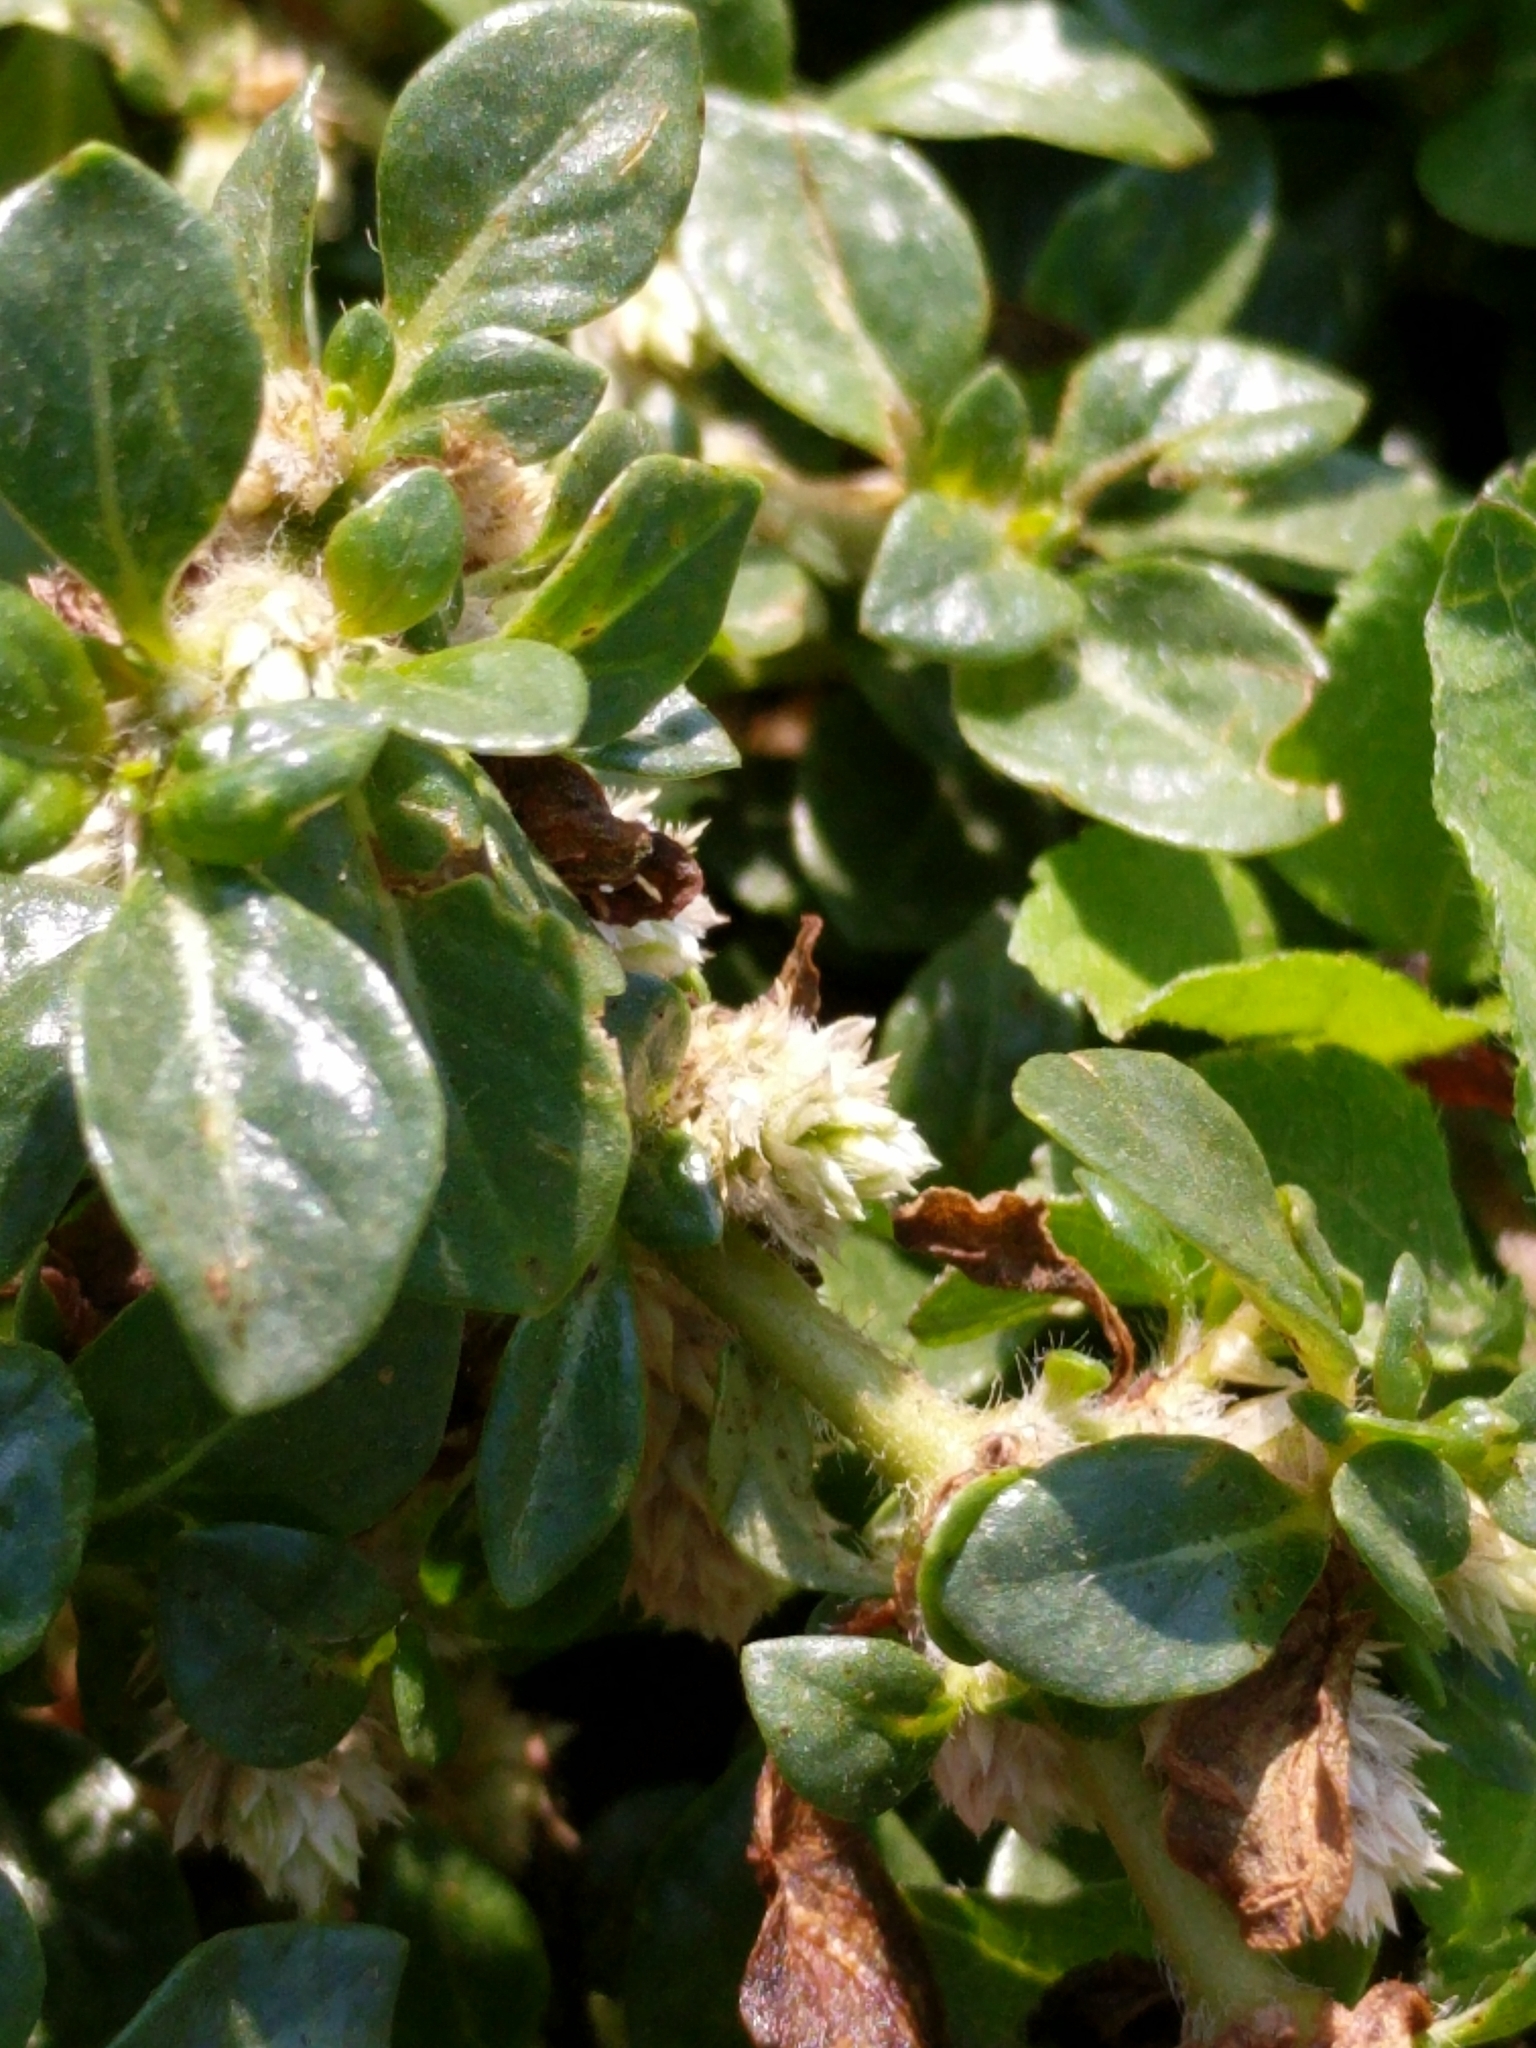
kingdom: Plantae
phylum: Tracheophyta
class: Magnoliopsida
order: Caryophyllales
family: Amaranthaceae
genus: Alternanthera
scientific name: Alternanthera caracasana
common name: Washerwoman
